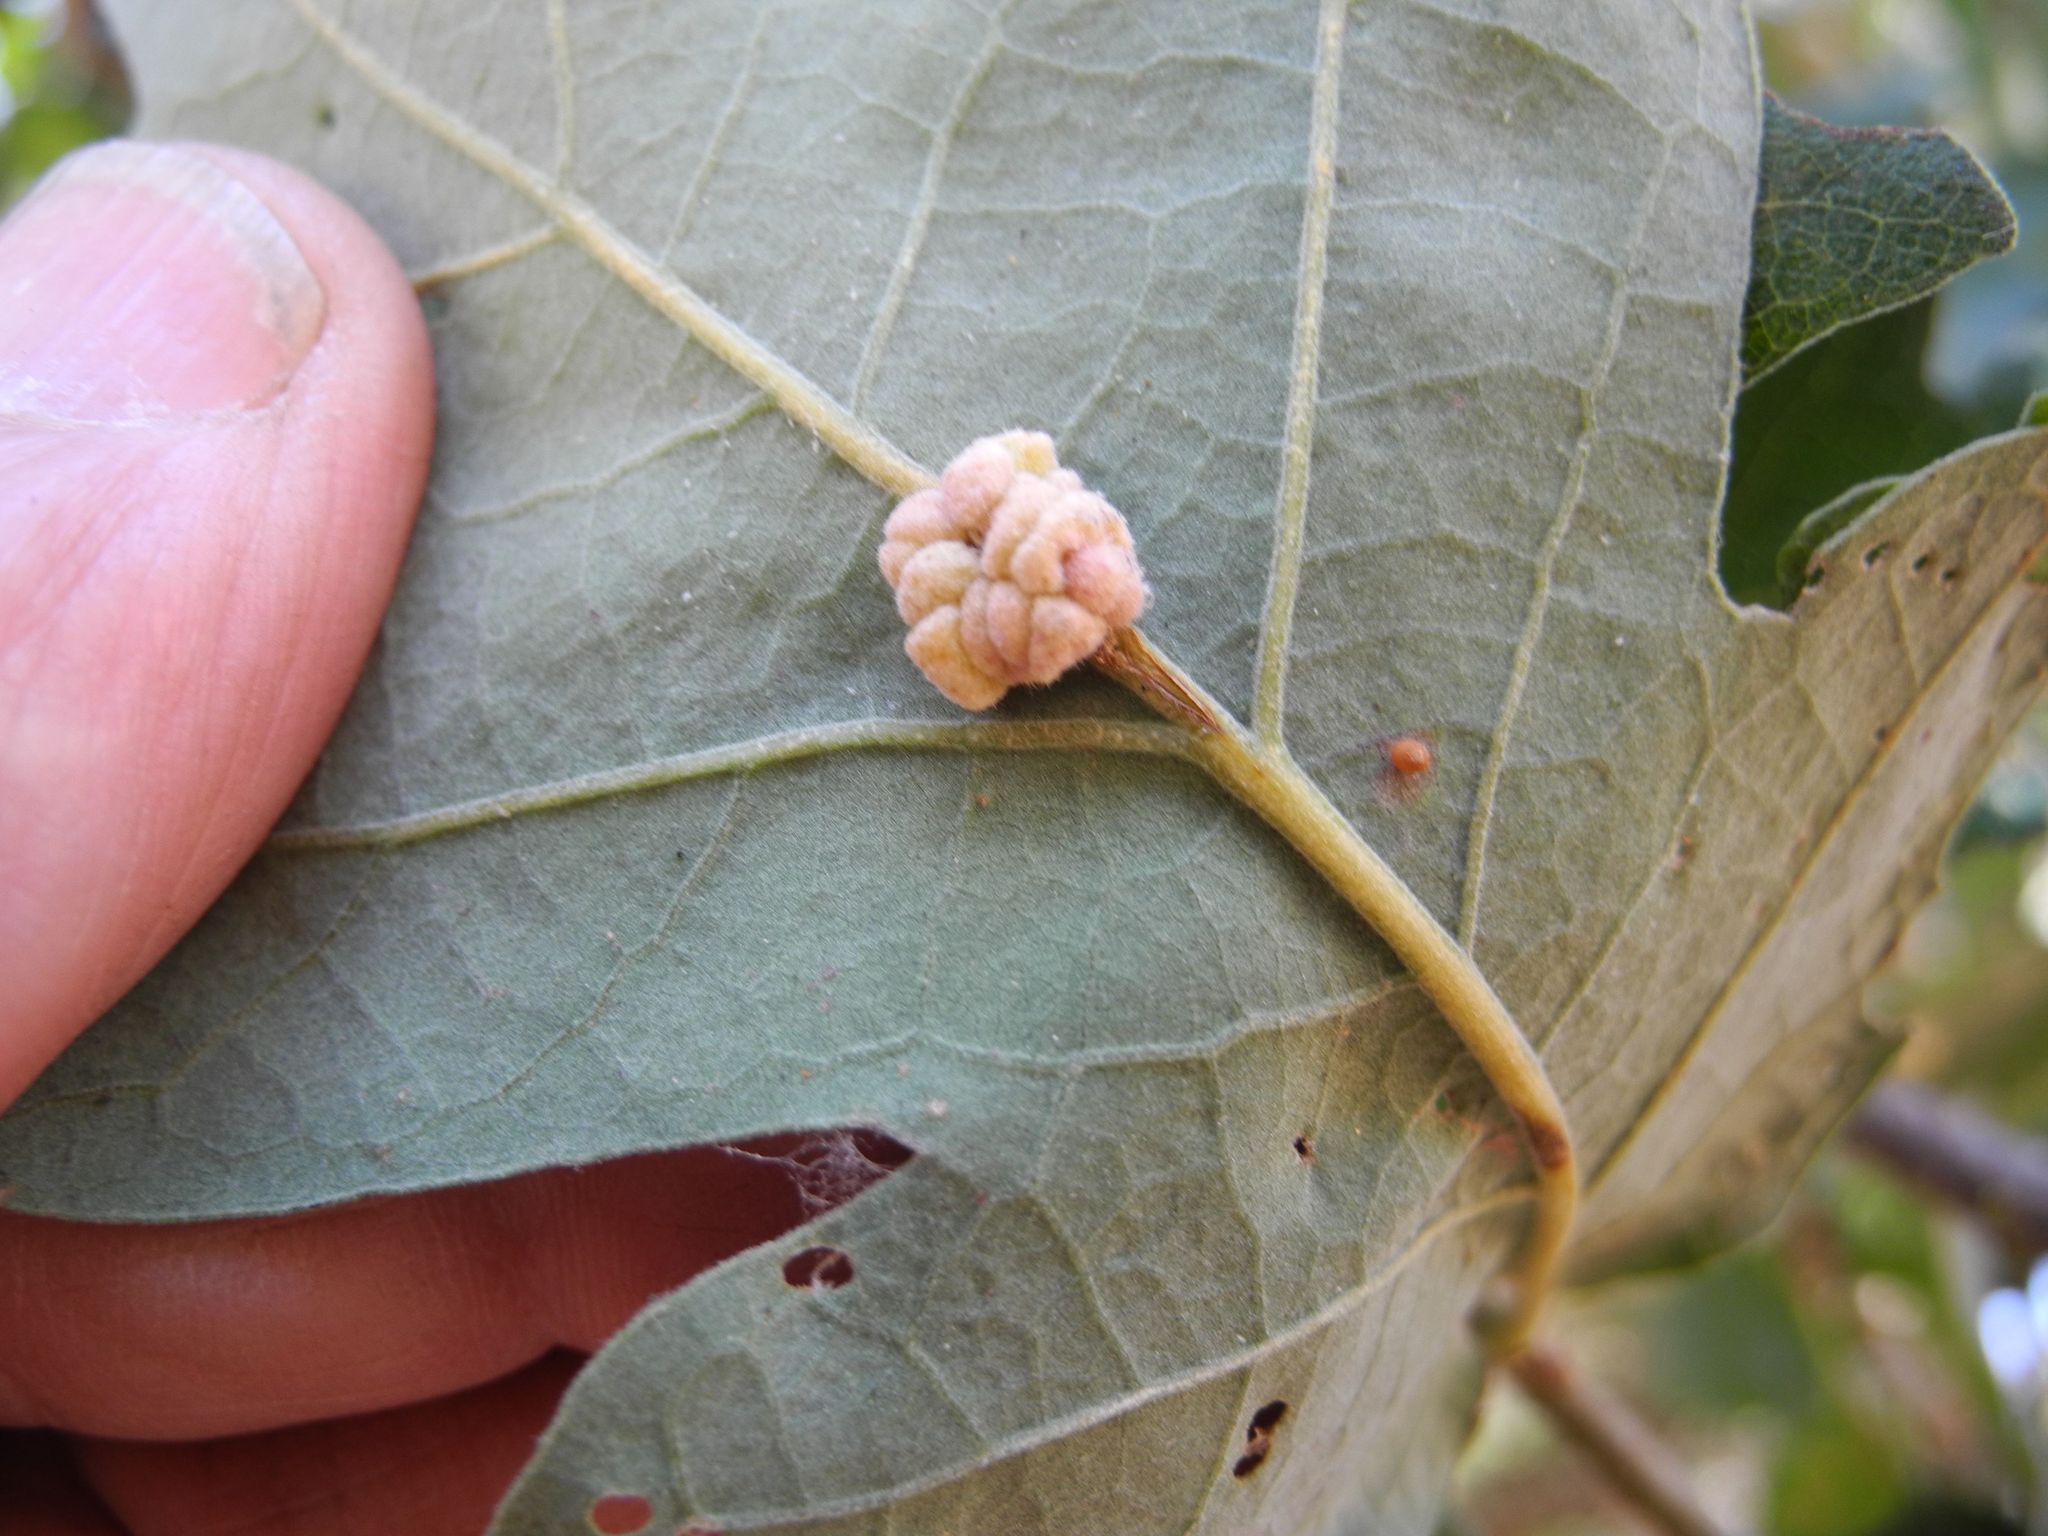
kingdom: Animalia
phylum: Arthropoda
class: Insecta
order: Hymenoptera
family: Cynipidae
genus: Andricus
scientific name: Andricus
